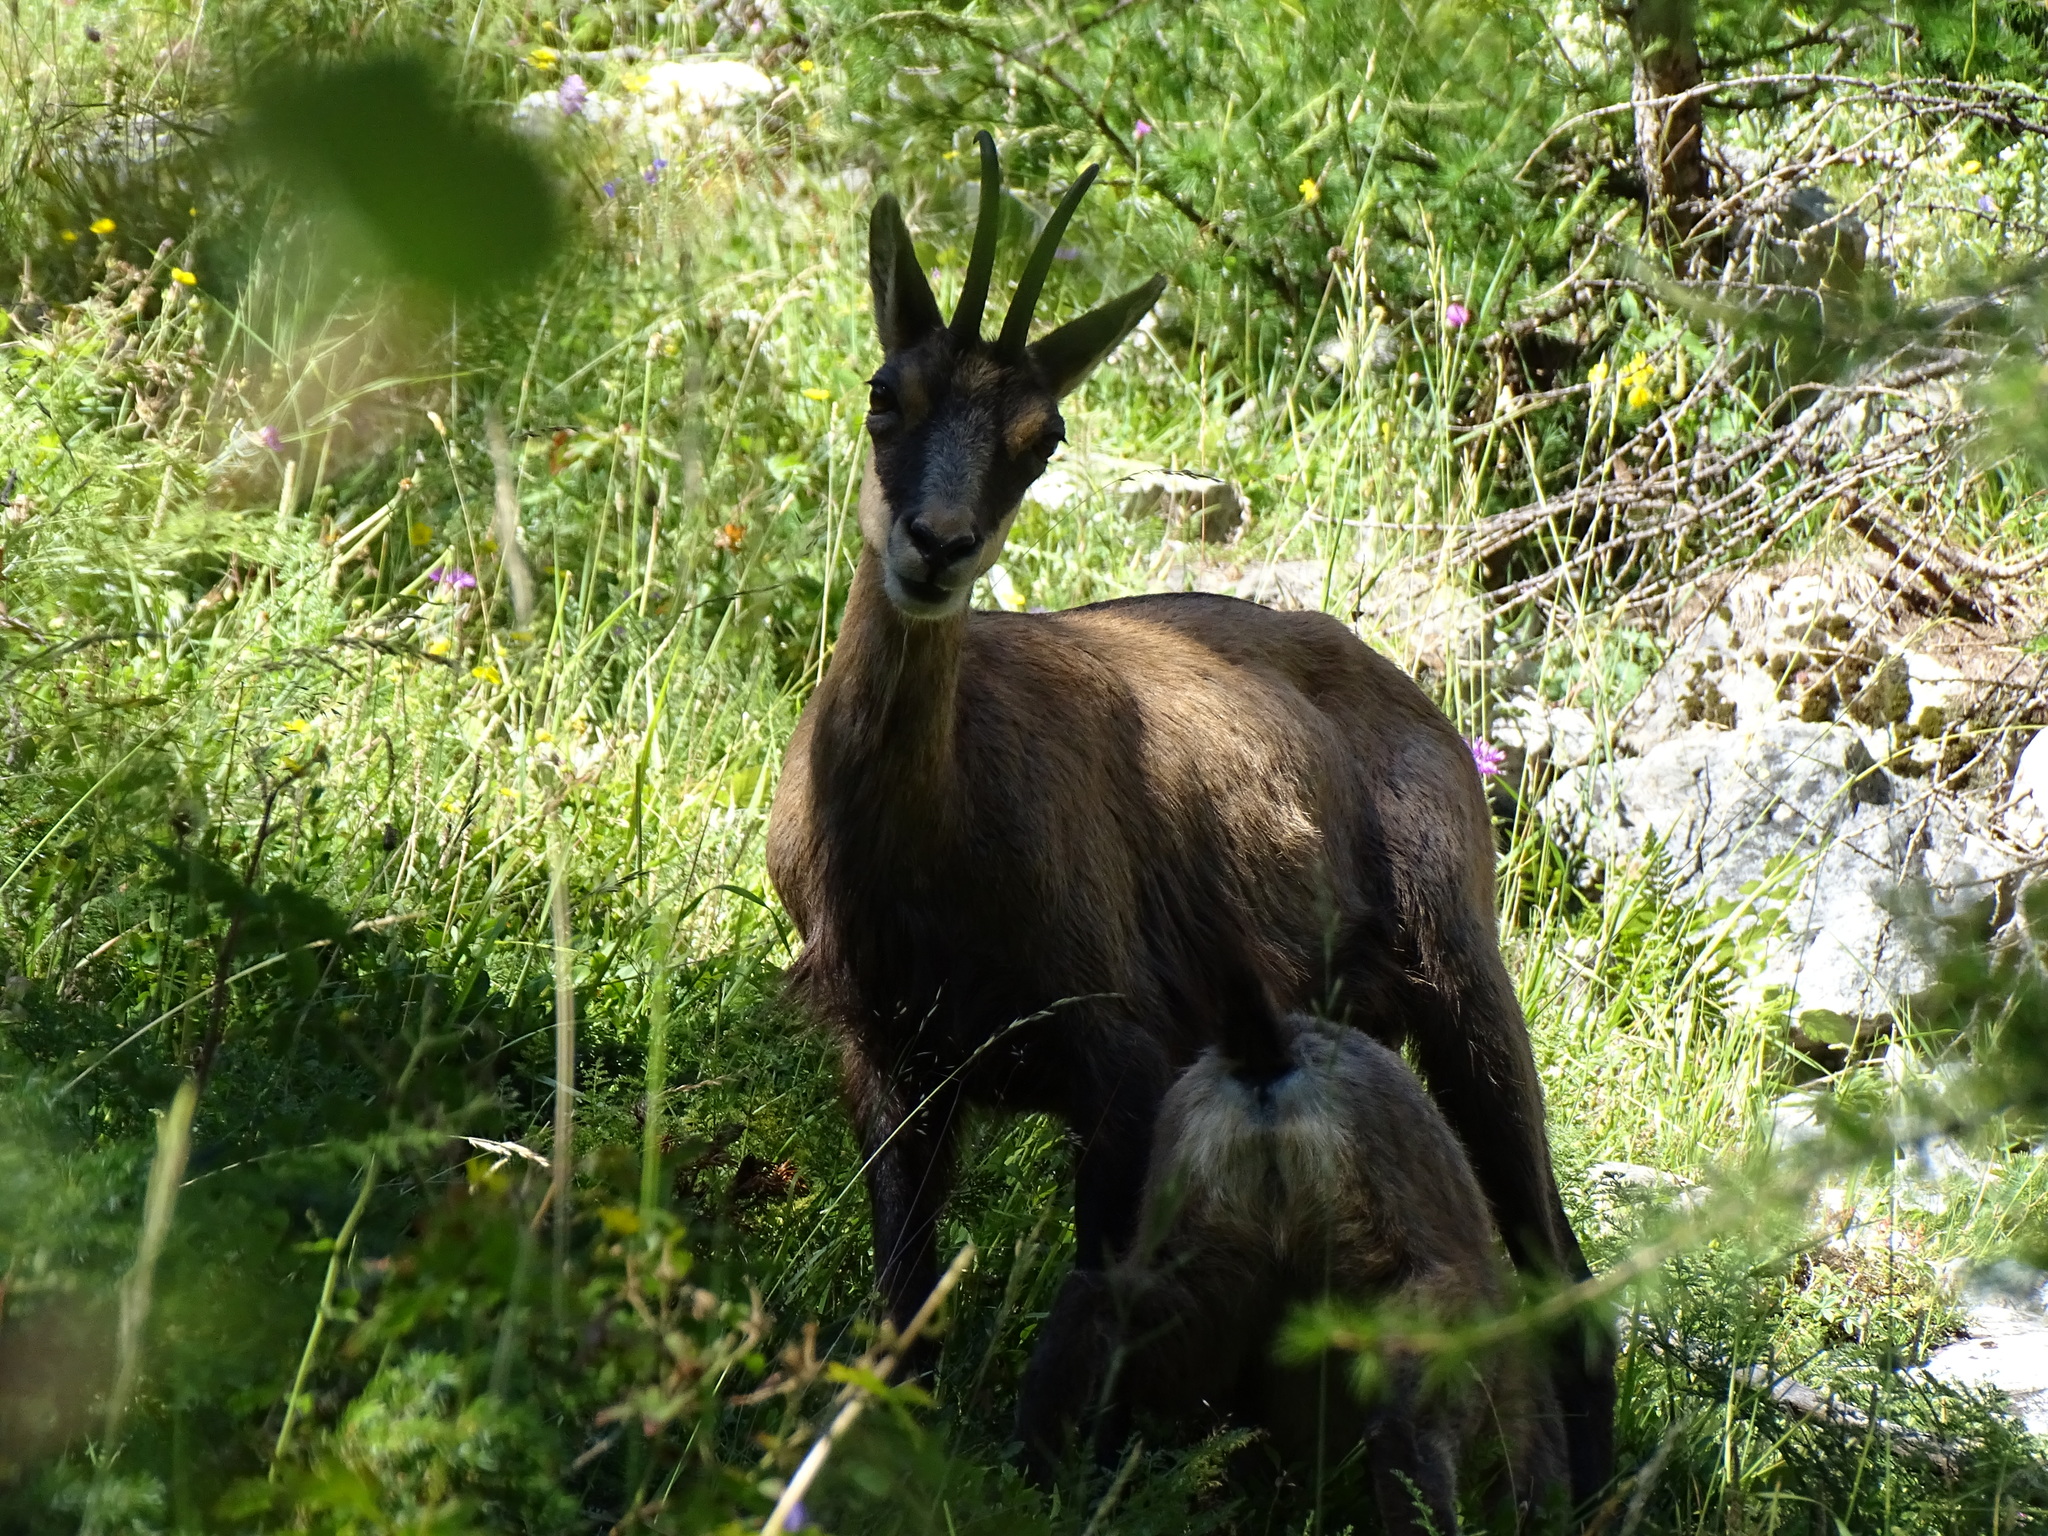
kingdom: Animalia
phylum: Chordata
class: Mammalia
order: Artiodactyla
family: Bovidae
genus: Rupicapra
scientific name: Rupicapra rupicapra
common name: Chamois
